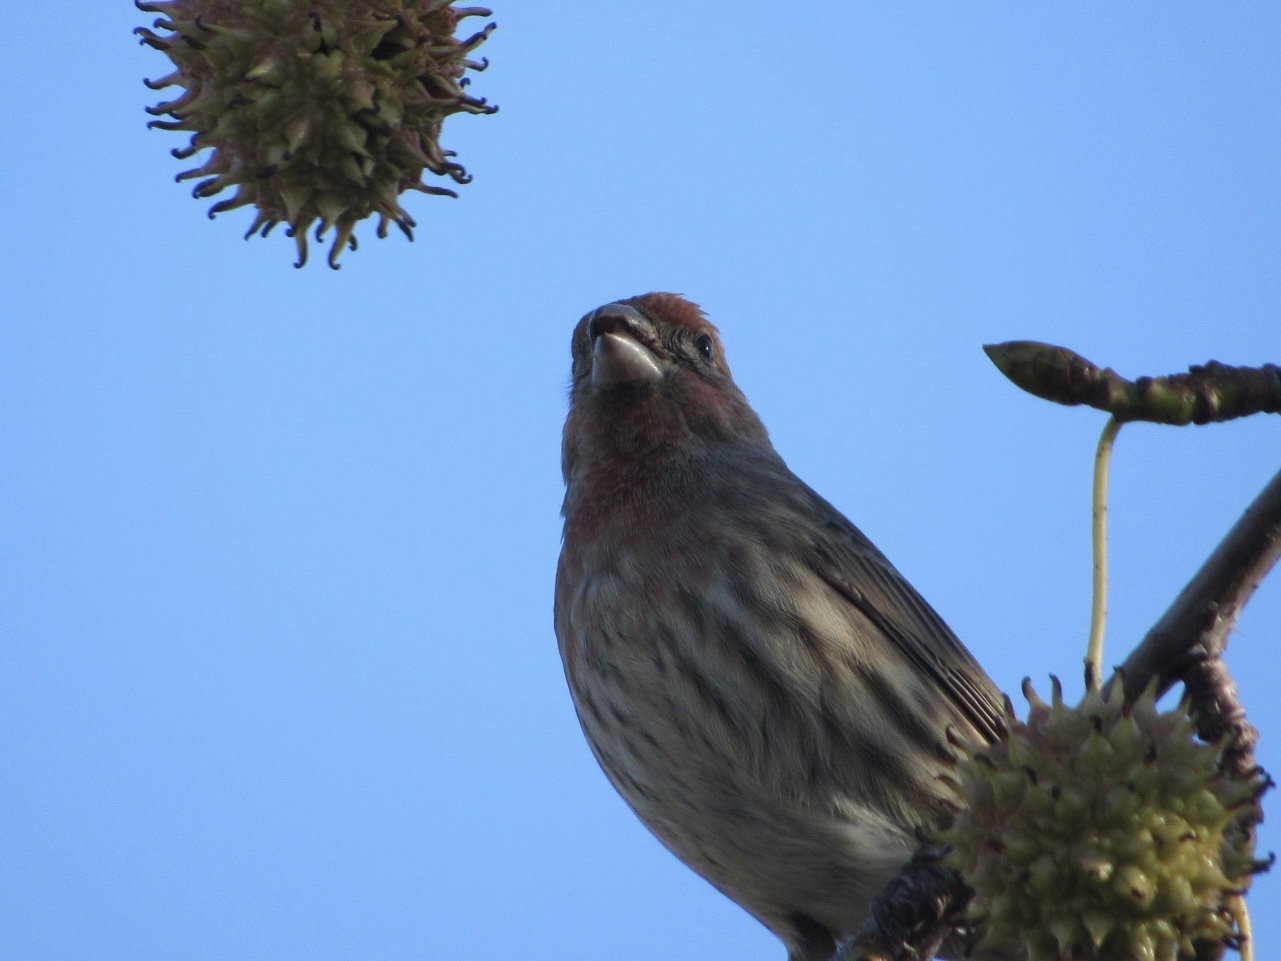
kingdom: Animalia
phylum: Chordata
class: Aves
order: Passeriformes
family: Fringillidae
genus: Haemorhous
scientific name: Haemorhous mexicanus
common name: House finch
